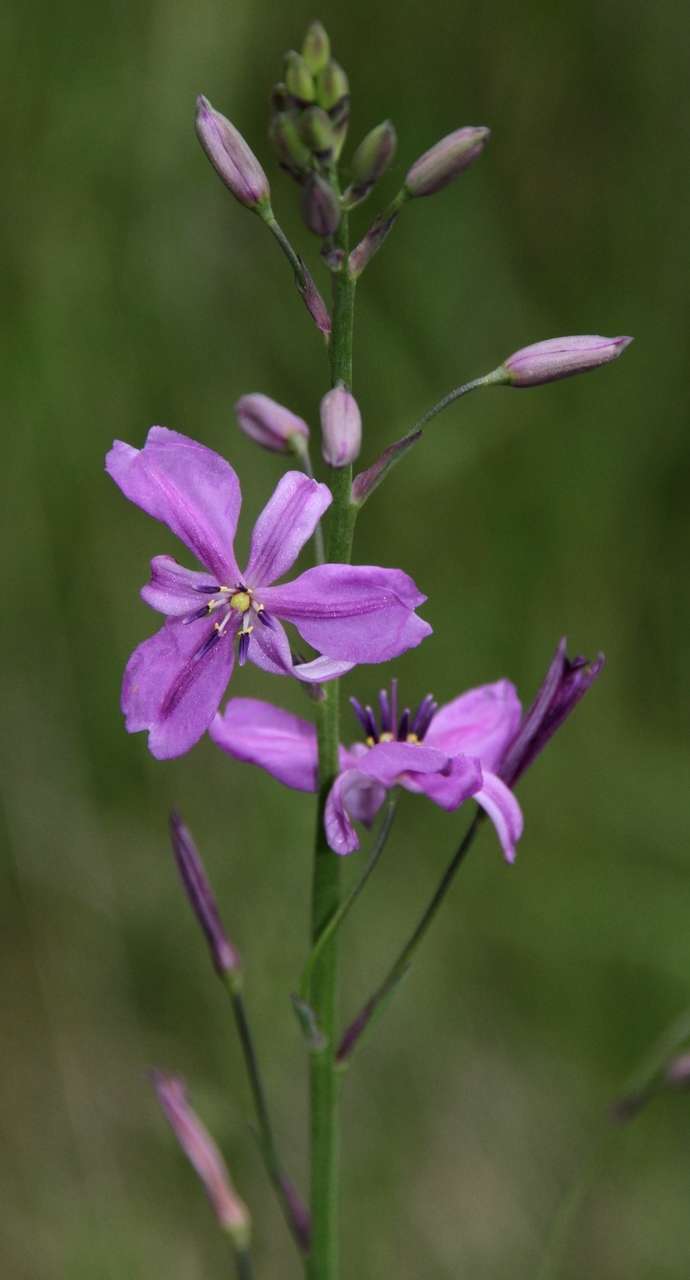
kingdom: Plantae
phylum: Tracheophyta
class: Liliopsida
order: Asparagales
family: Asparagaceae
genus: Arthropodium
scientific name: Arthropodium strictum
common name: Chocolate-lily
